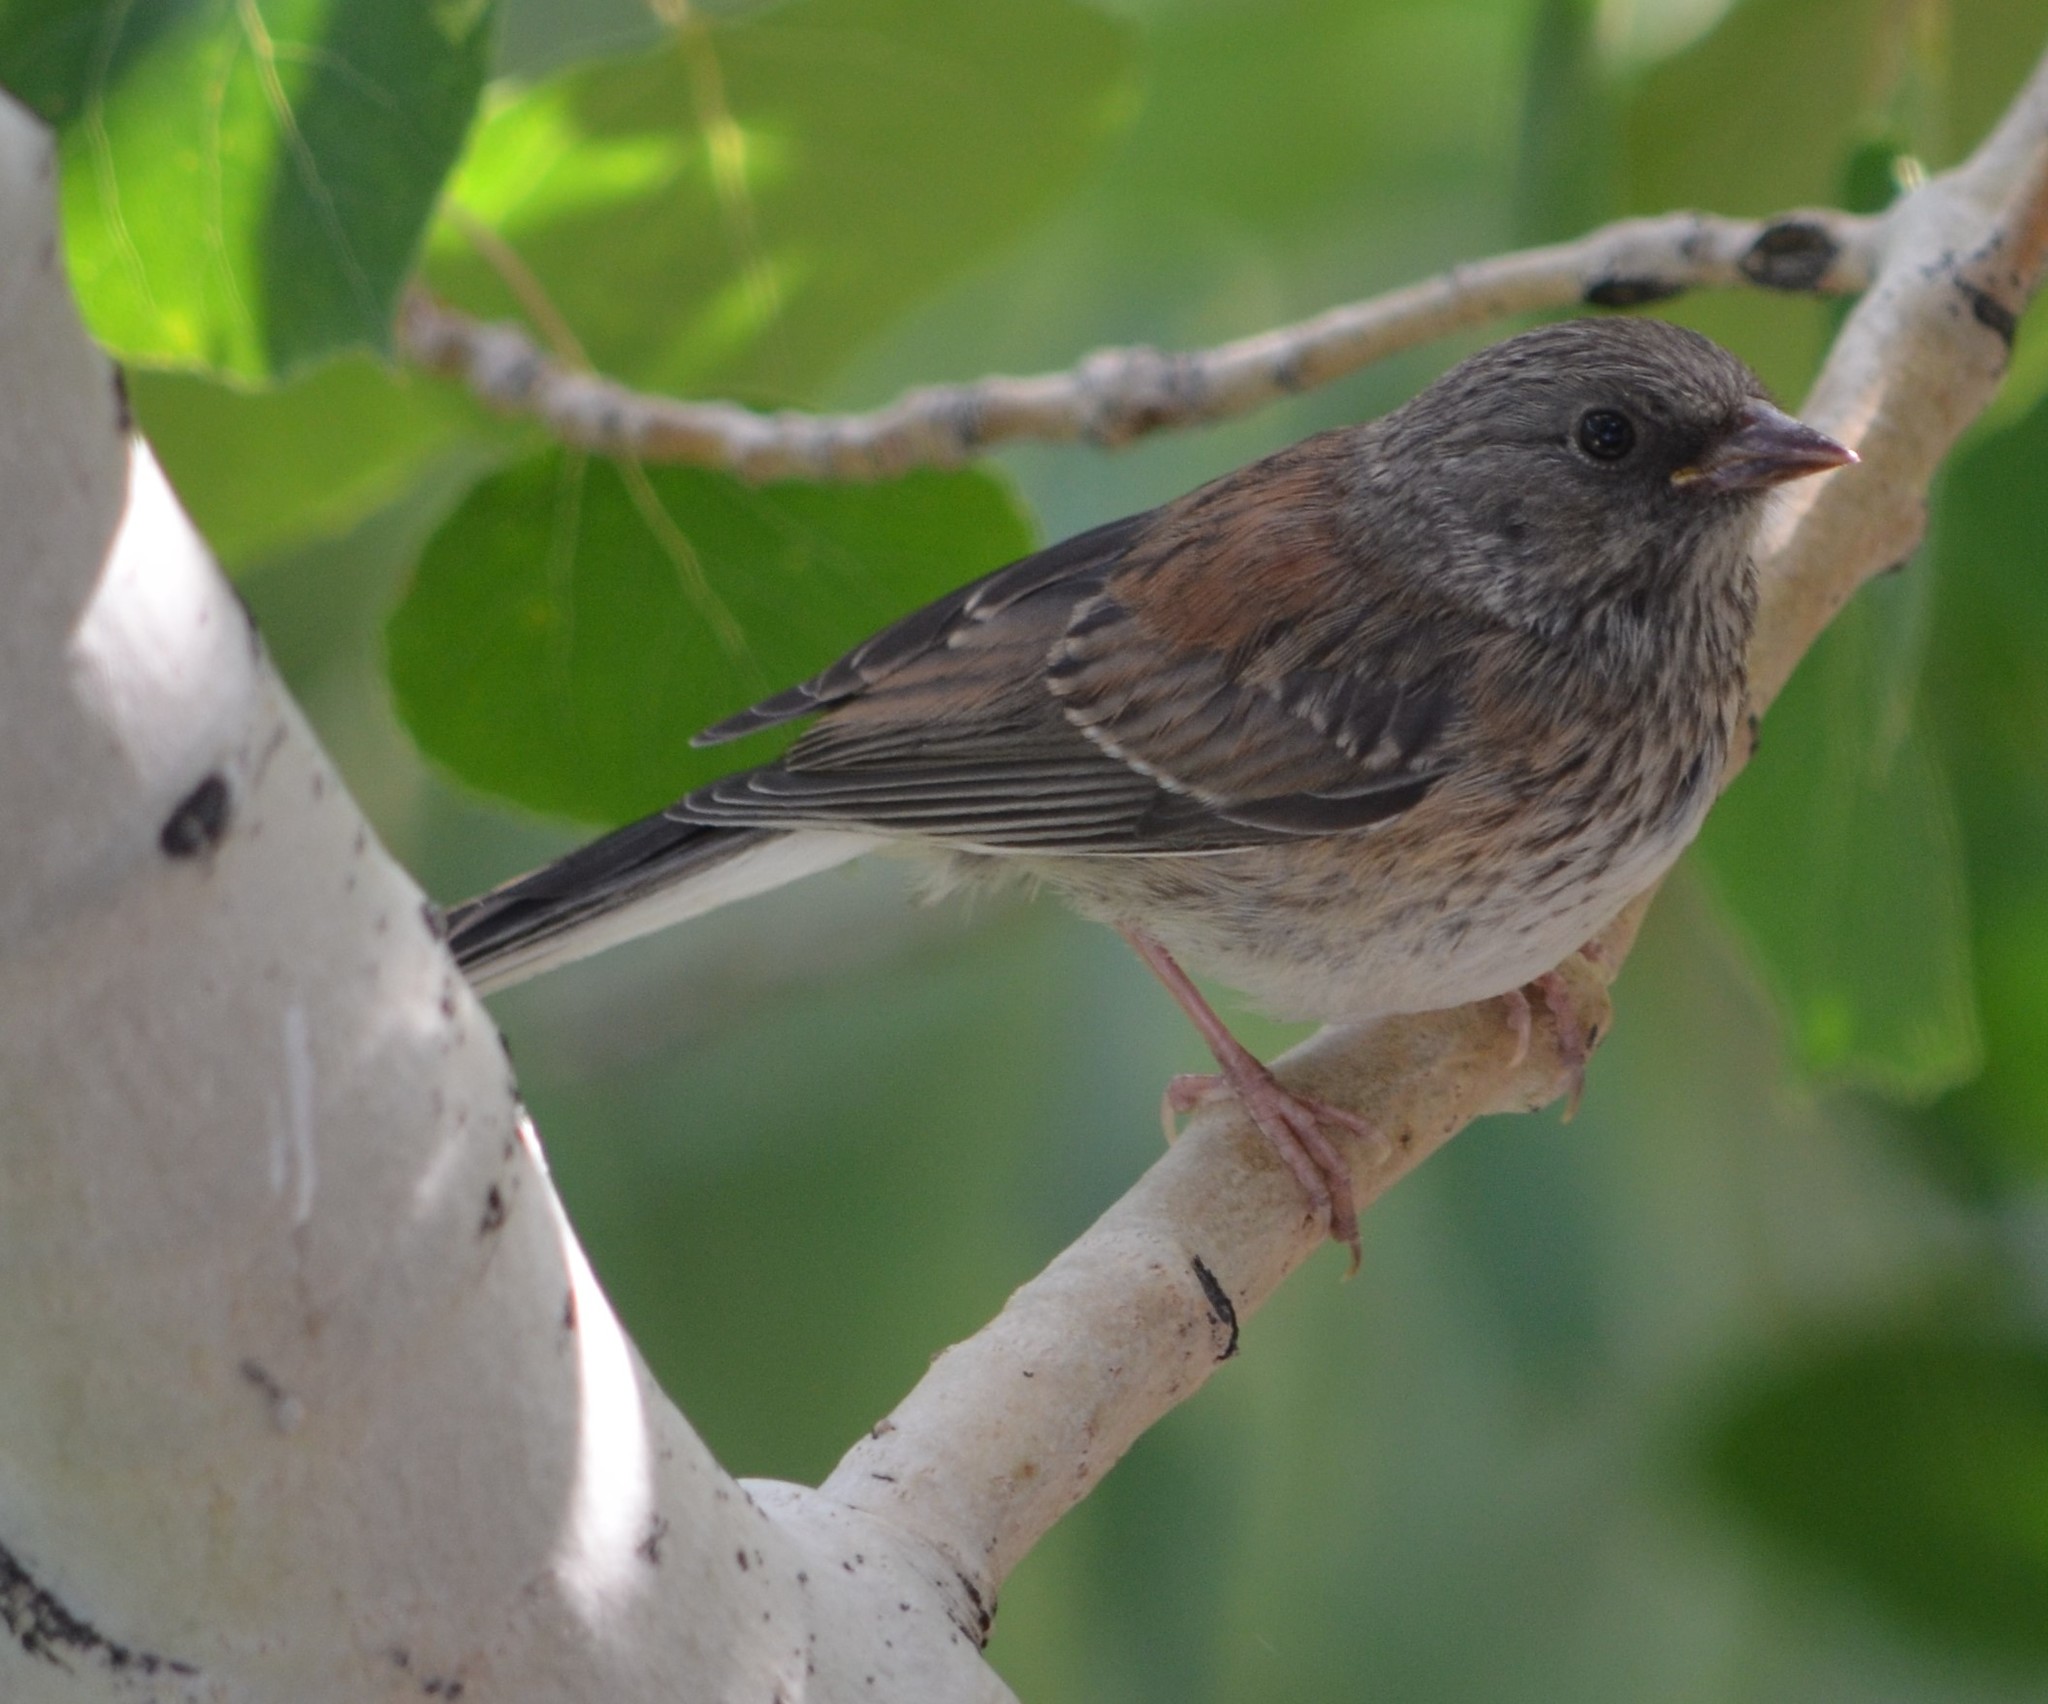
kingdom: Animalia
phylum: Chordata
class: Aves
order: Passeriformes
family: Passerellidae
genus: Junco
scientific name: Junco hyemalis
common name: Dark-eyed junco
